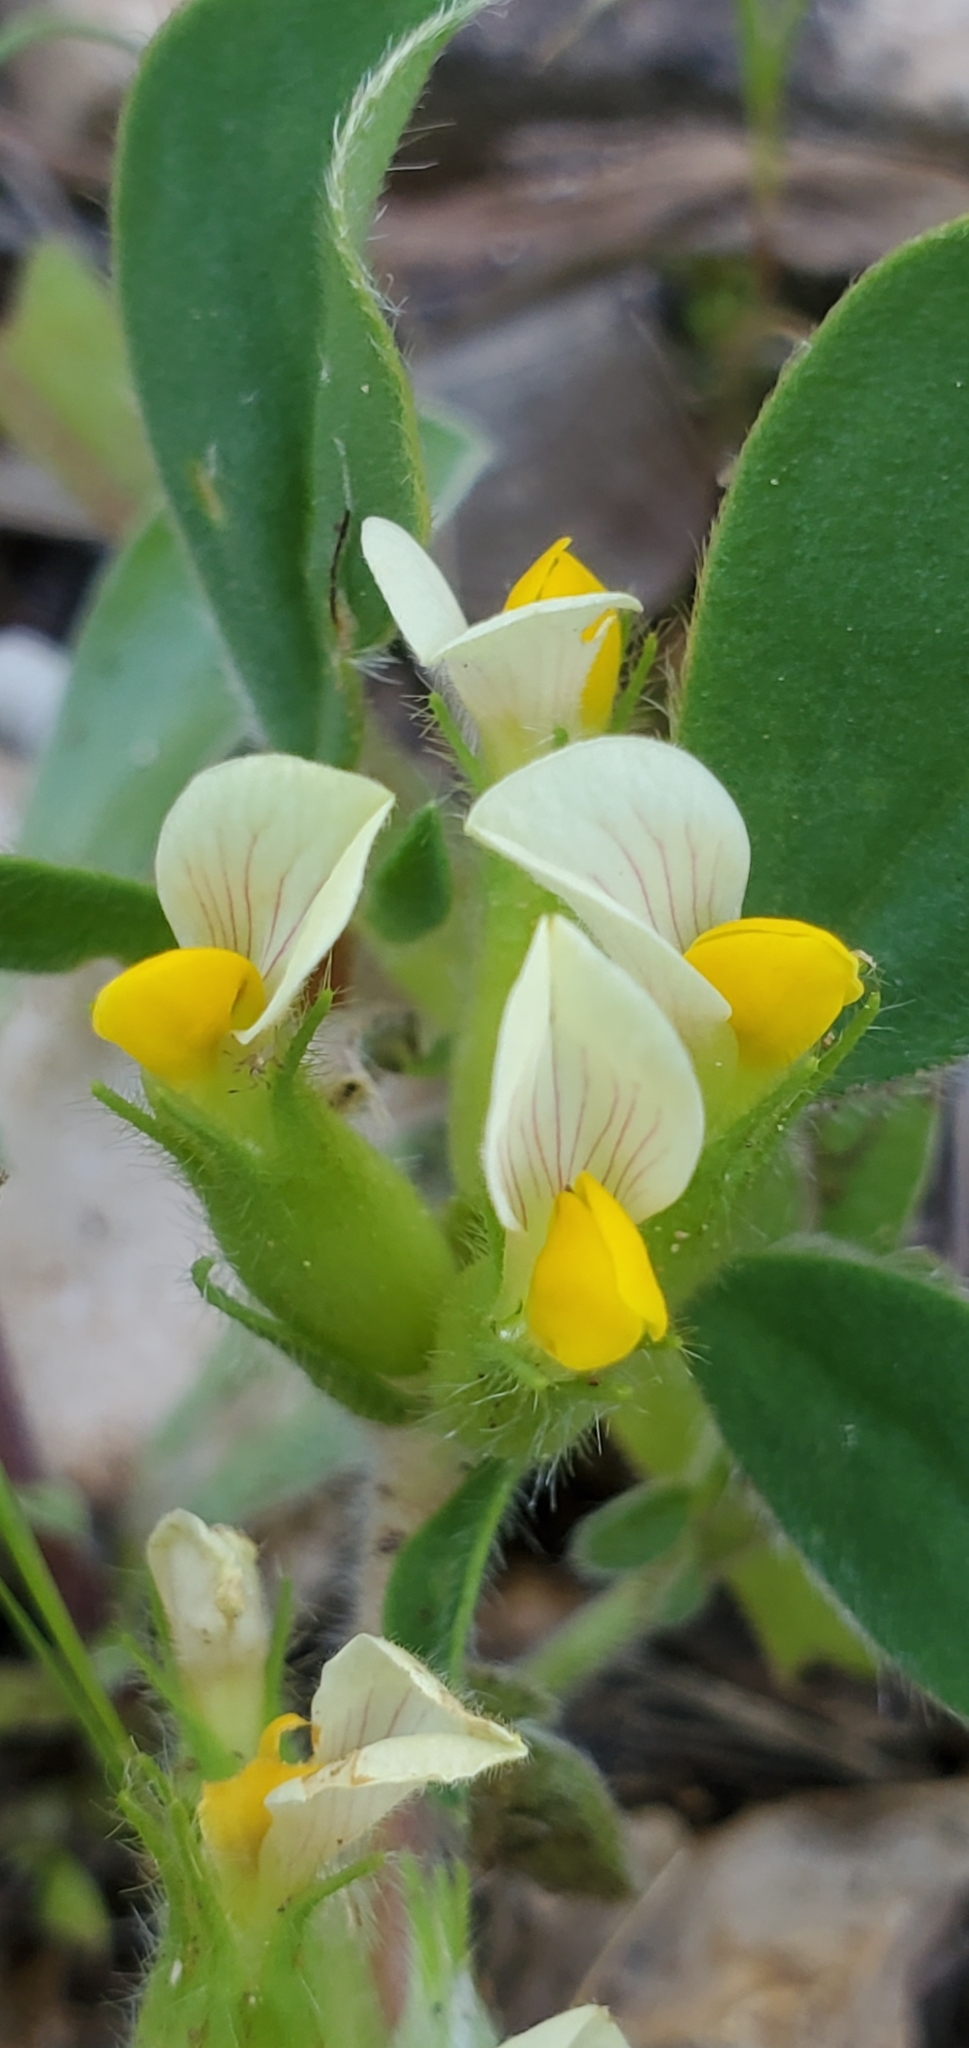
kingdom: Plantae
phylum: Tracheophyta
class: Magnoliopsida
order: Fabales
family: Fabaceae
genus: Tripodion
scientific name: Tripodion tetraphyllum
